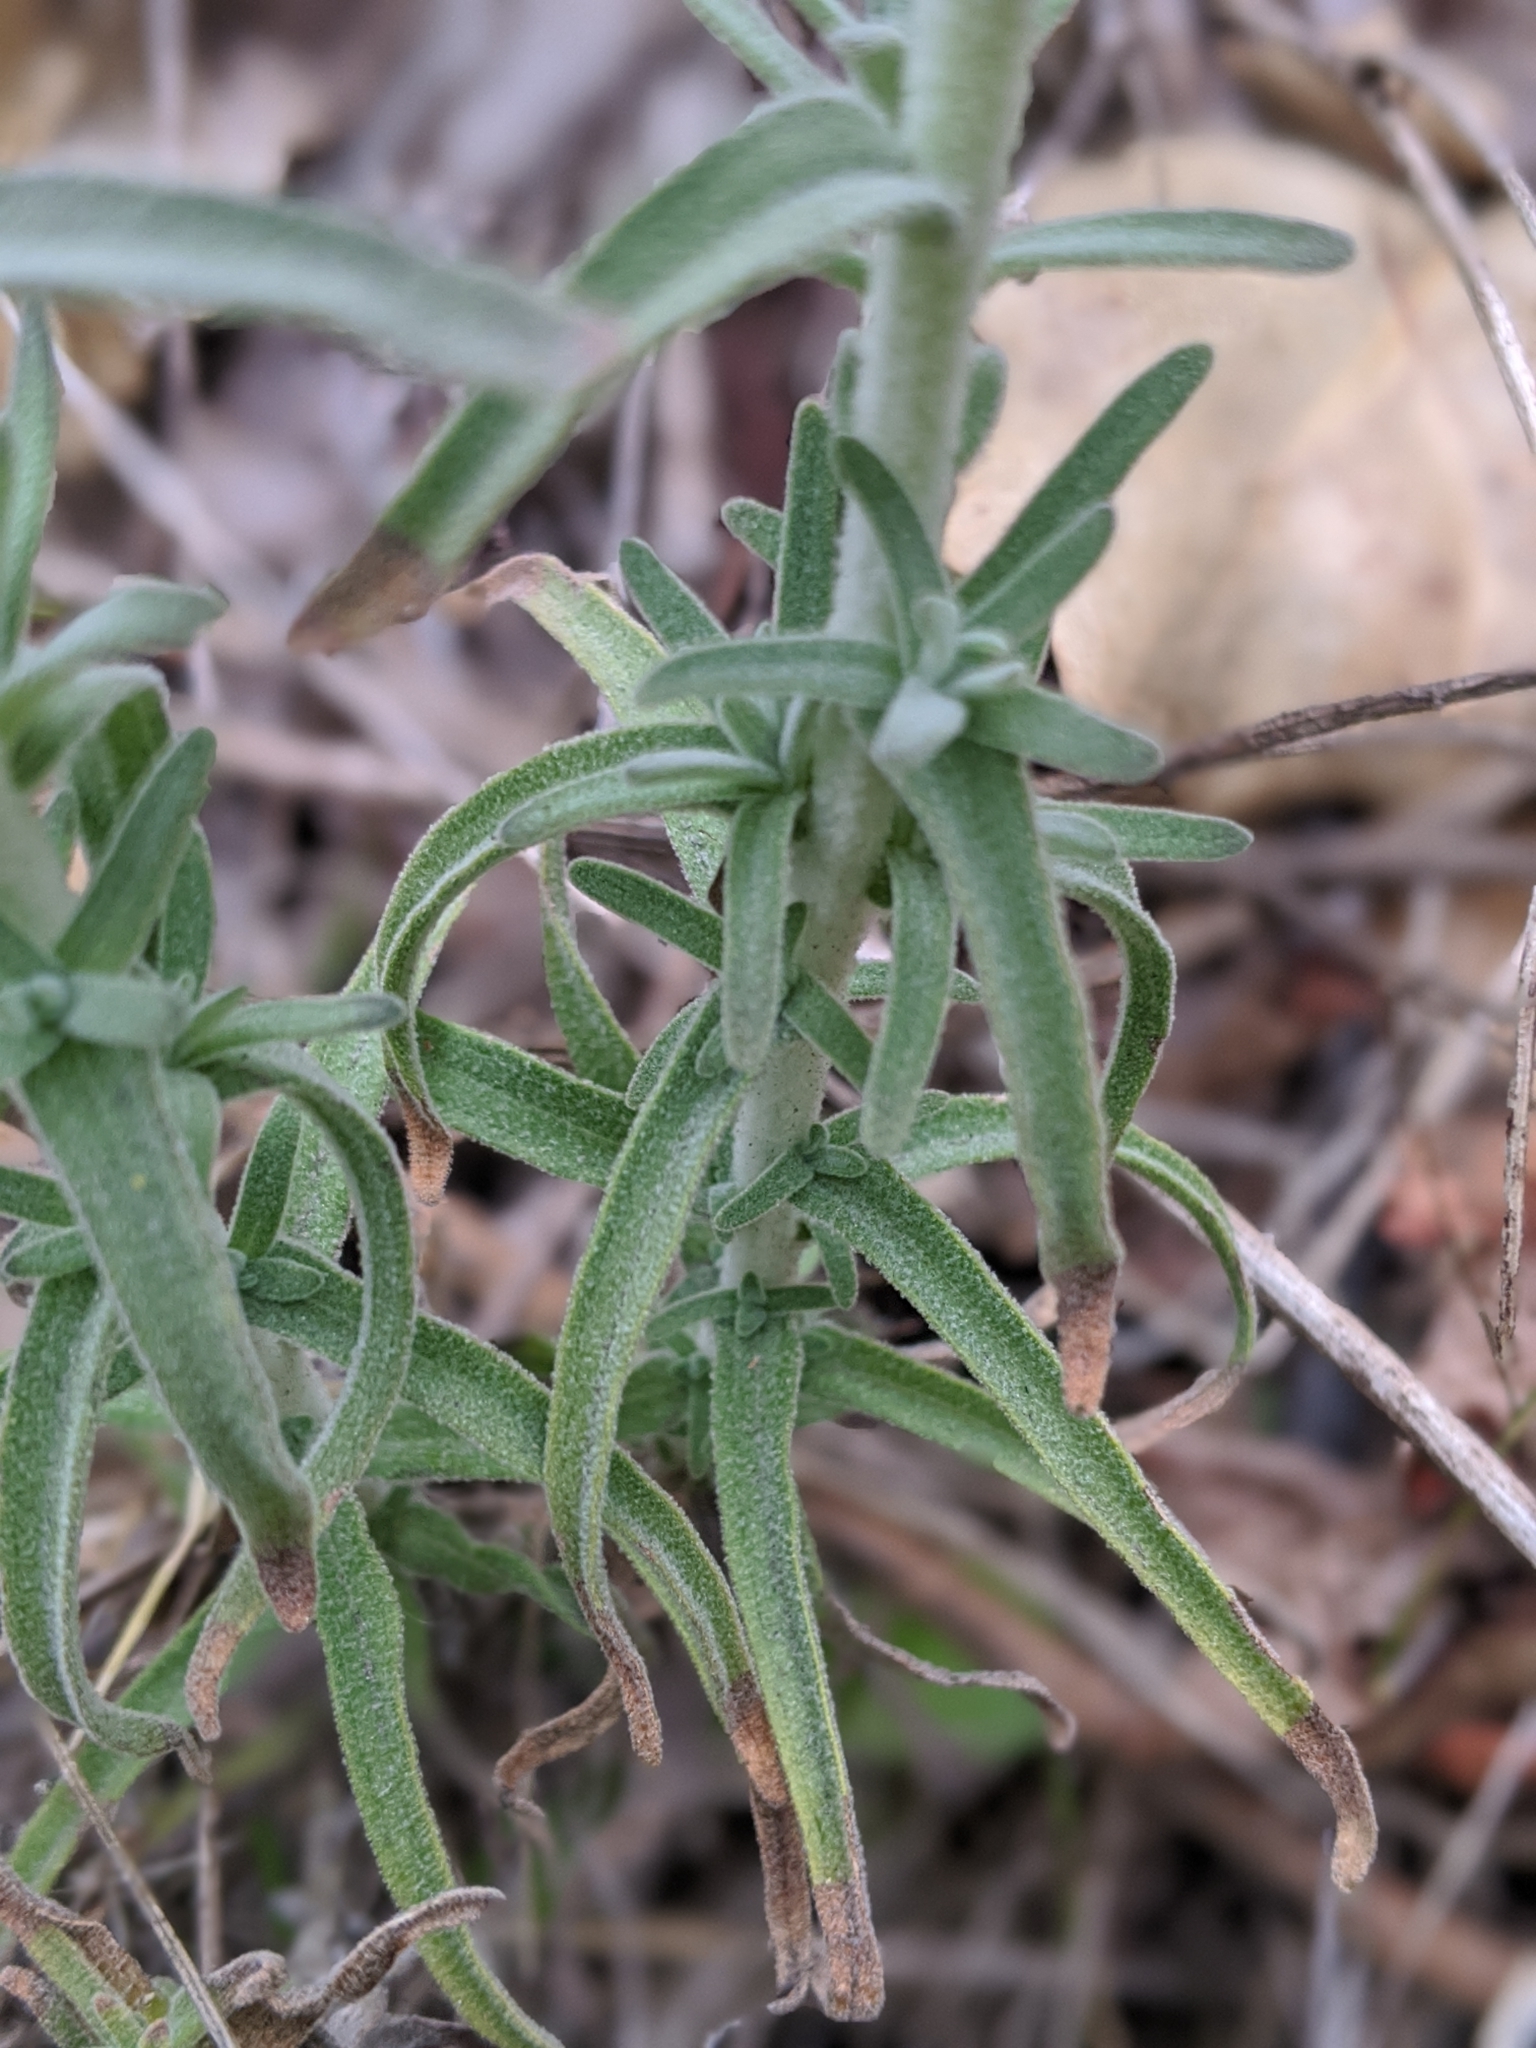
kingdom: Plantae
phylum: Tracheophyta
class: Magnoliopsida
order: Lamiales
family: Orobanchaceae
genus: Castilleja
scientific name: Castilleja foliolosa
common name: Woolly indian paintbrush
